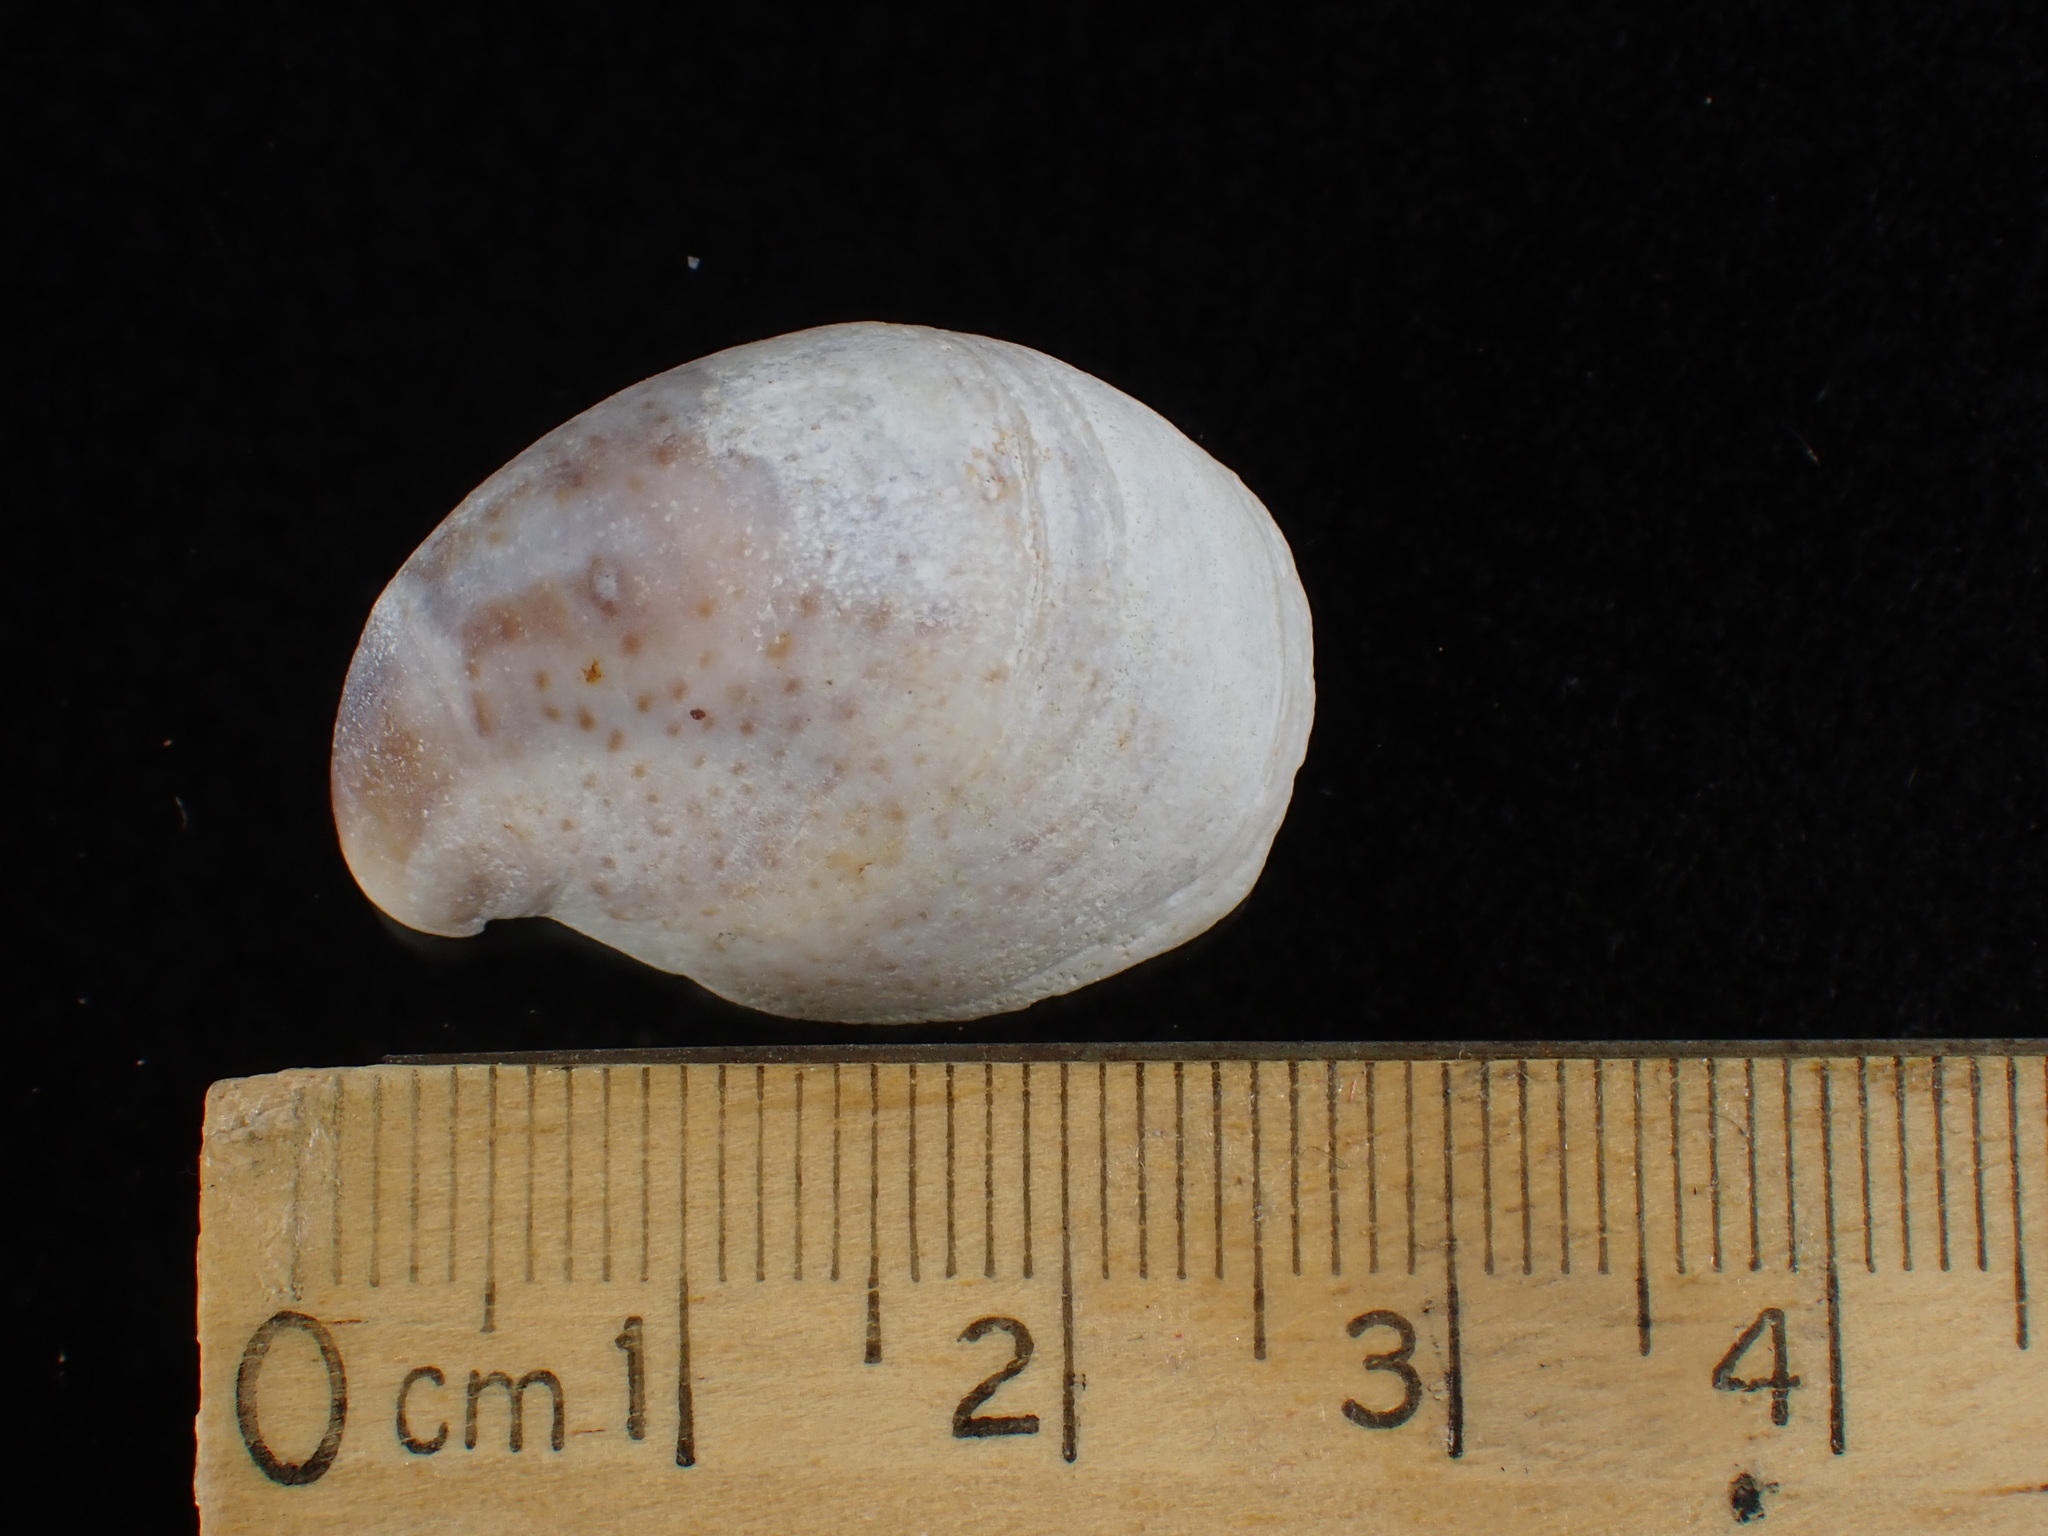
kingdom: Animalia
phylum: Mollusca
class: Gastropoda
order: Littorinimorpha
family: Calyptraeidae
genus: Crepidula
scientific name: Crepidula fornicata
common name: Slipper limpet
